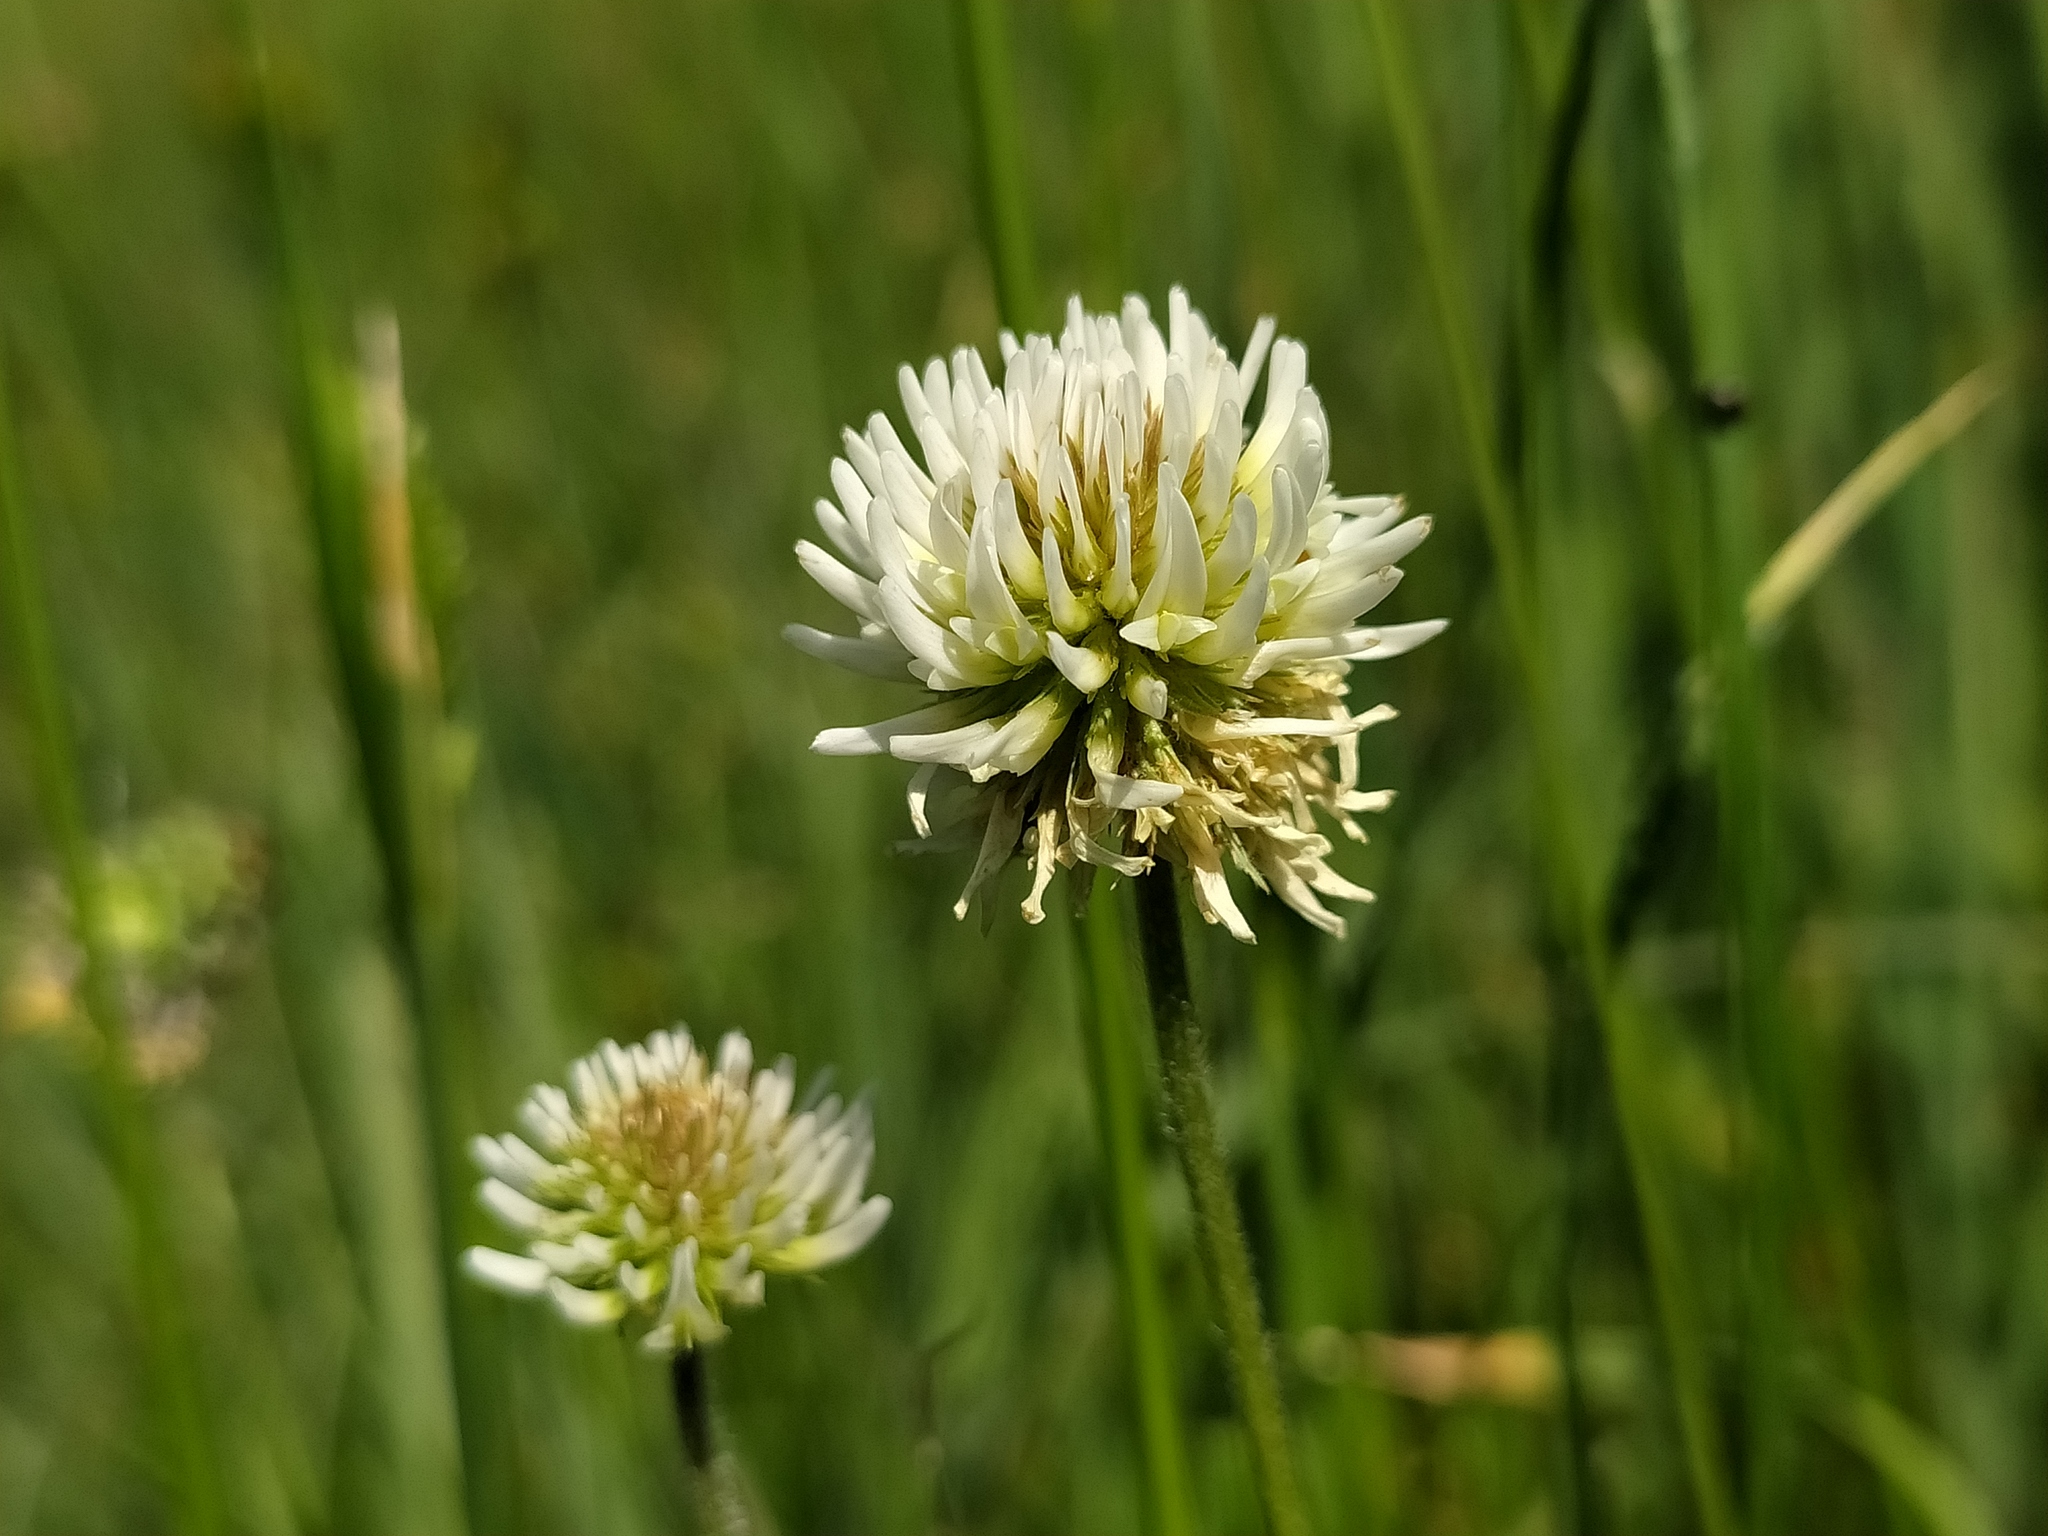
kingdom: Plantae
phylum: Tracheophyta
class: Magnoliopsida
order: Fabales
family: Fabaceae
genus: Trifolium
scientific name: Trifolium montanum
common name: Mountain clover
